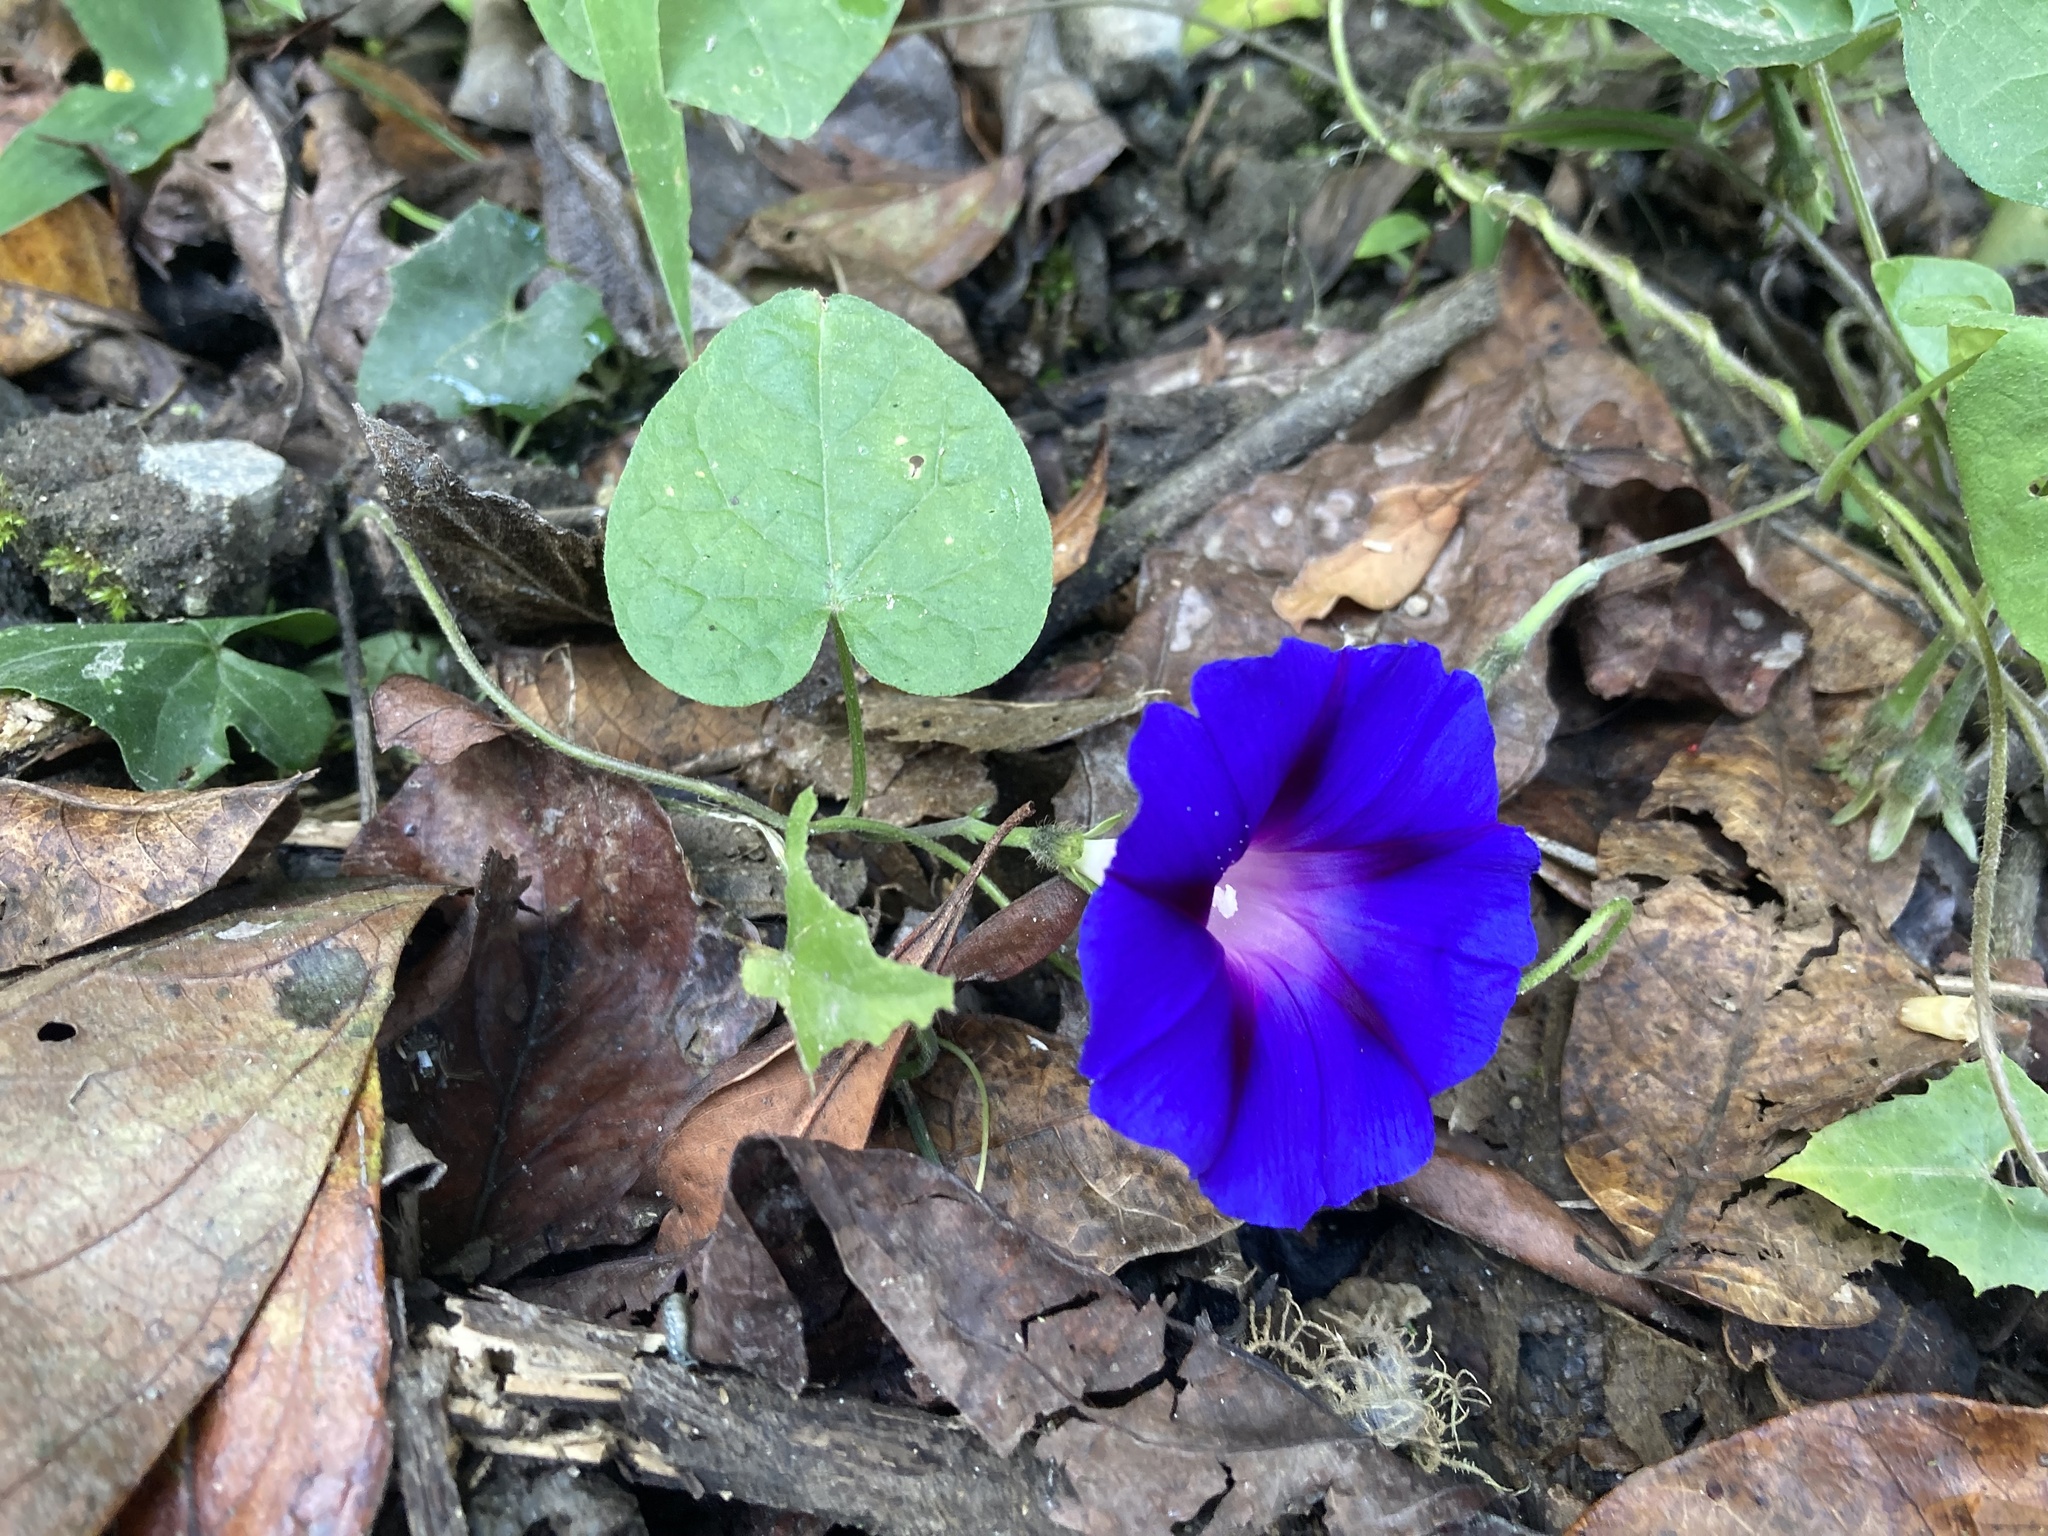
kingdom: Plantae
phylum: Tracheophyta
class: Magnoliopsida
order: Solanales
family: Convolvulaceae
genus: Ipomoea
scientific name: Ipomoea purpurea
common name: Common morning-glory
